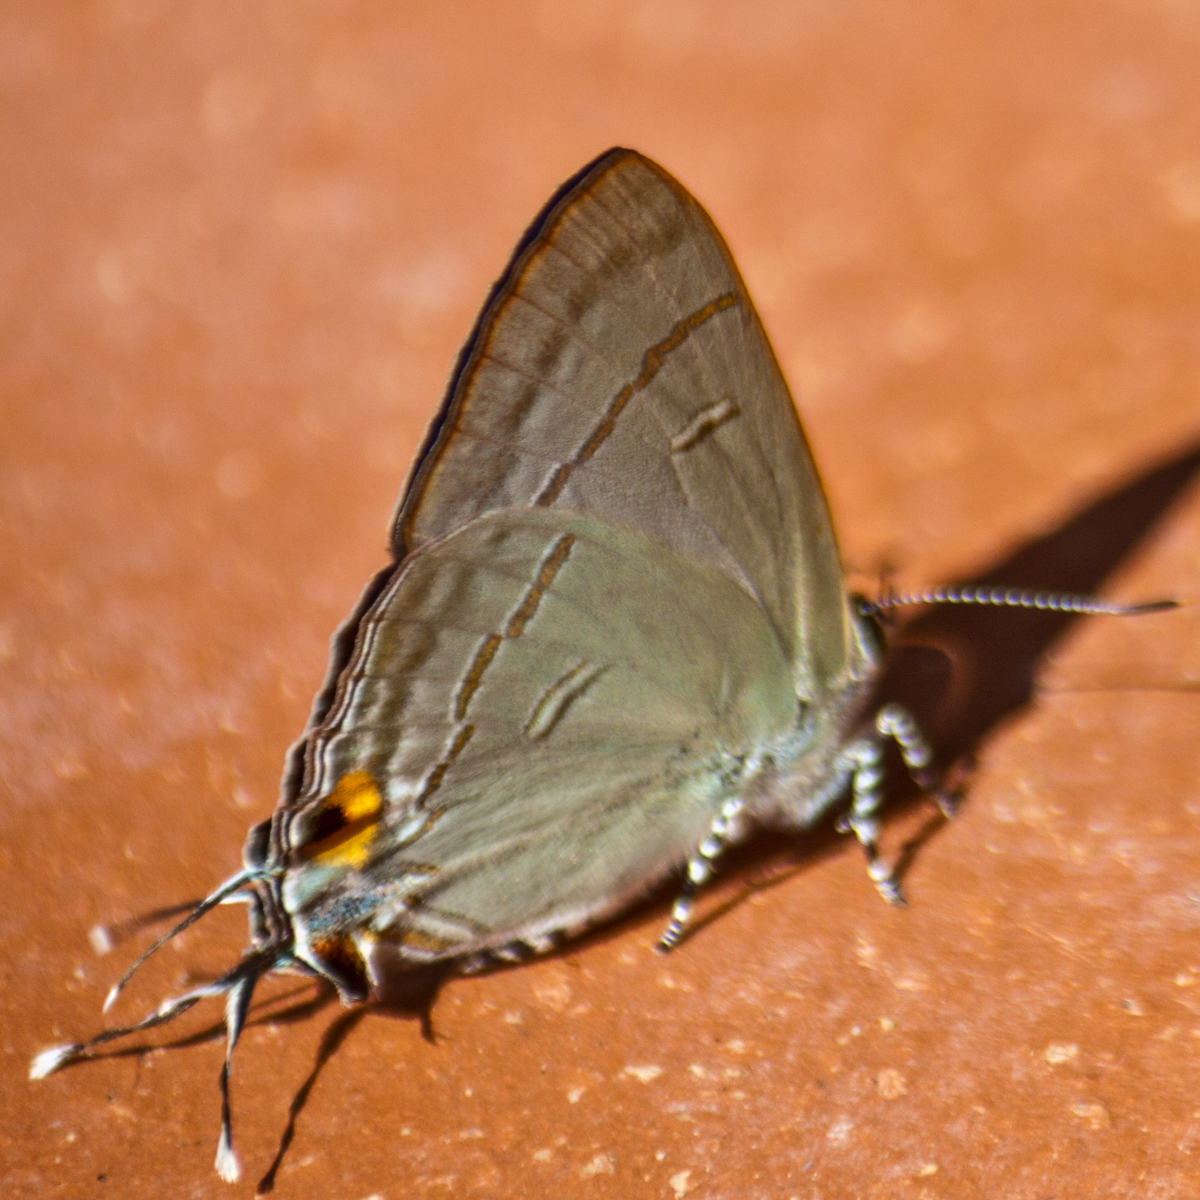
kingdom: Animalia
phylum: Arthropoda
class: Insecta
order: Lepidoptera
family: Lycaenidae
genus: Hypolycaena
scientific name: Hypolycaena erylus
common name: Common tit
